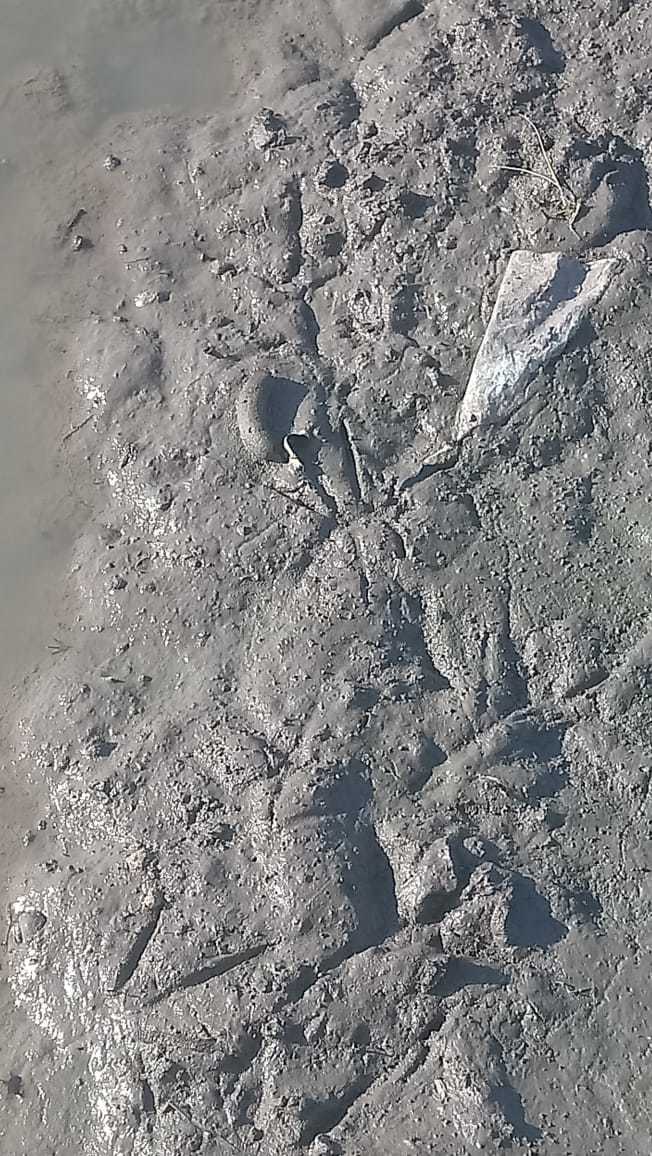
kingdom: Animalia
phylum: Chordata
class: Mammalia
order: Rodentia
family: Myocastoridae
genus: Myocastor
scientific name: Myocastor coypus
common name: Coypu
